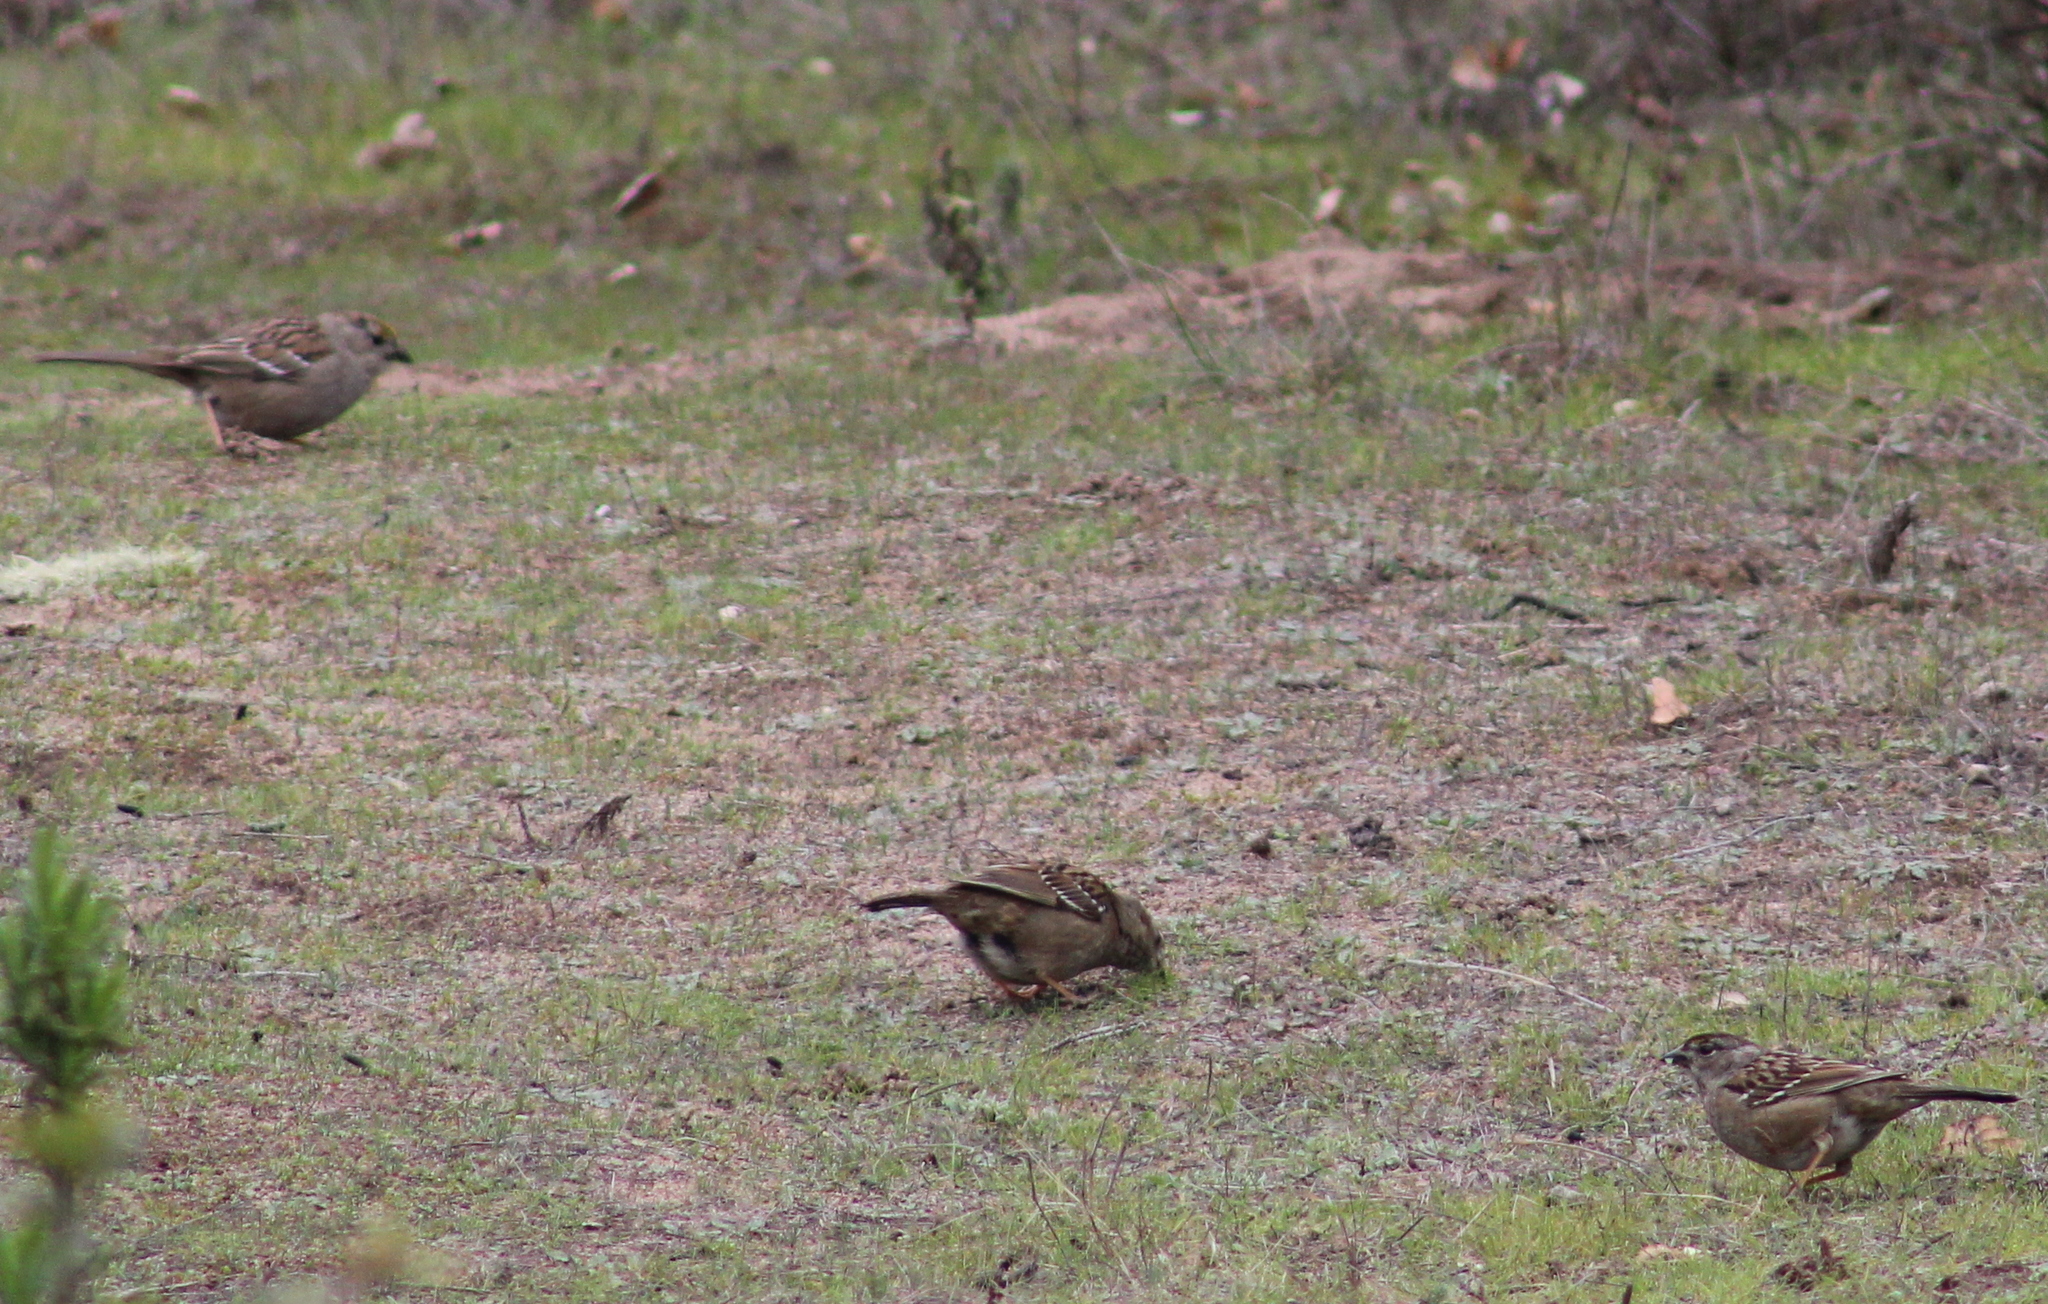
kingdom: Animalia
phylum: Chordata
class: Aves
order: Passeriformes
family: Passerellidae
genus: Zonotrichia
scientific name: Zonotrichia atricapilla
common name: Golden-crowned sparrow
